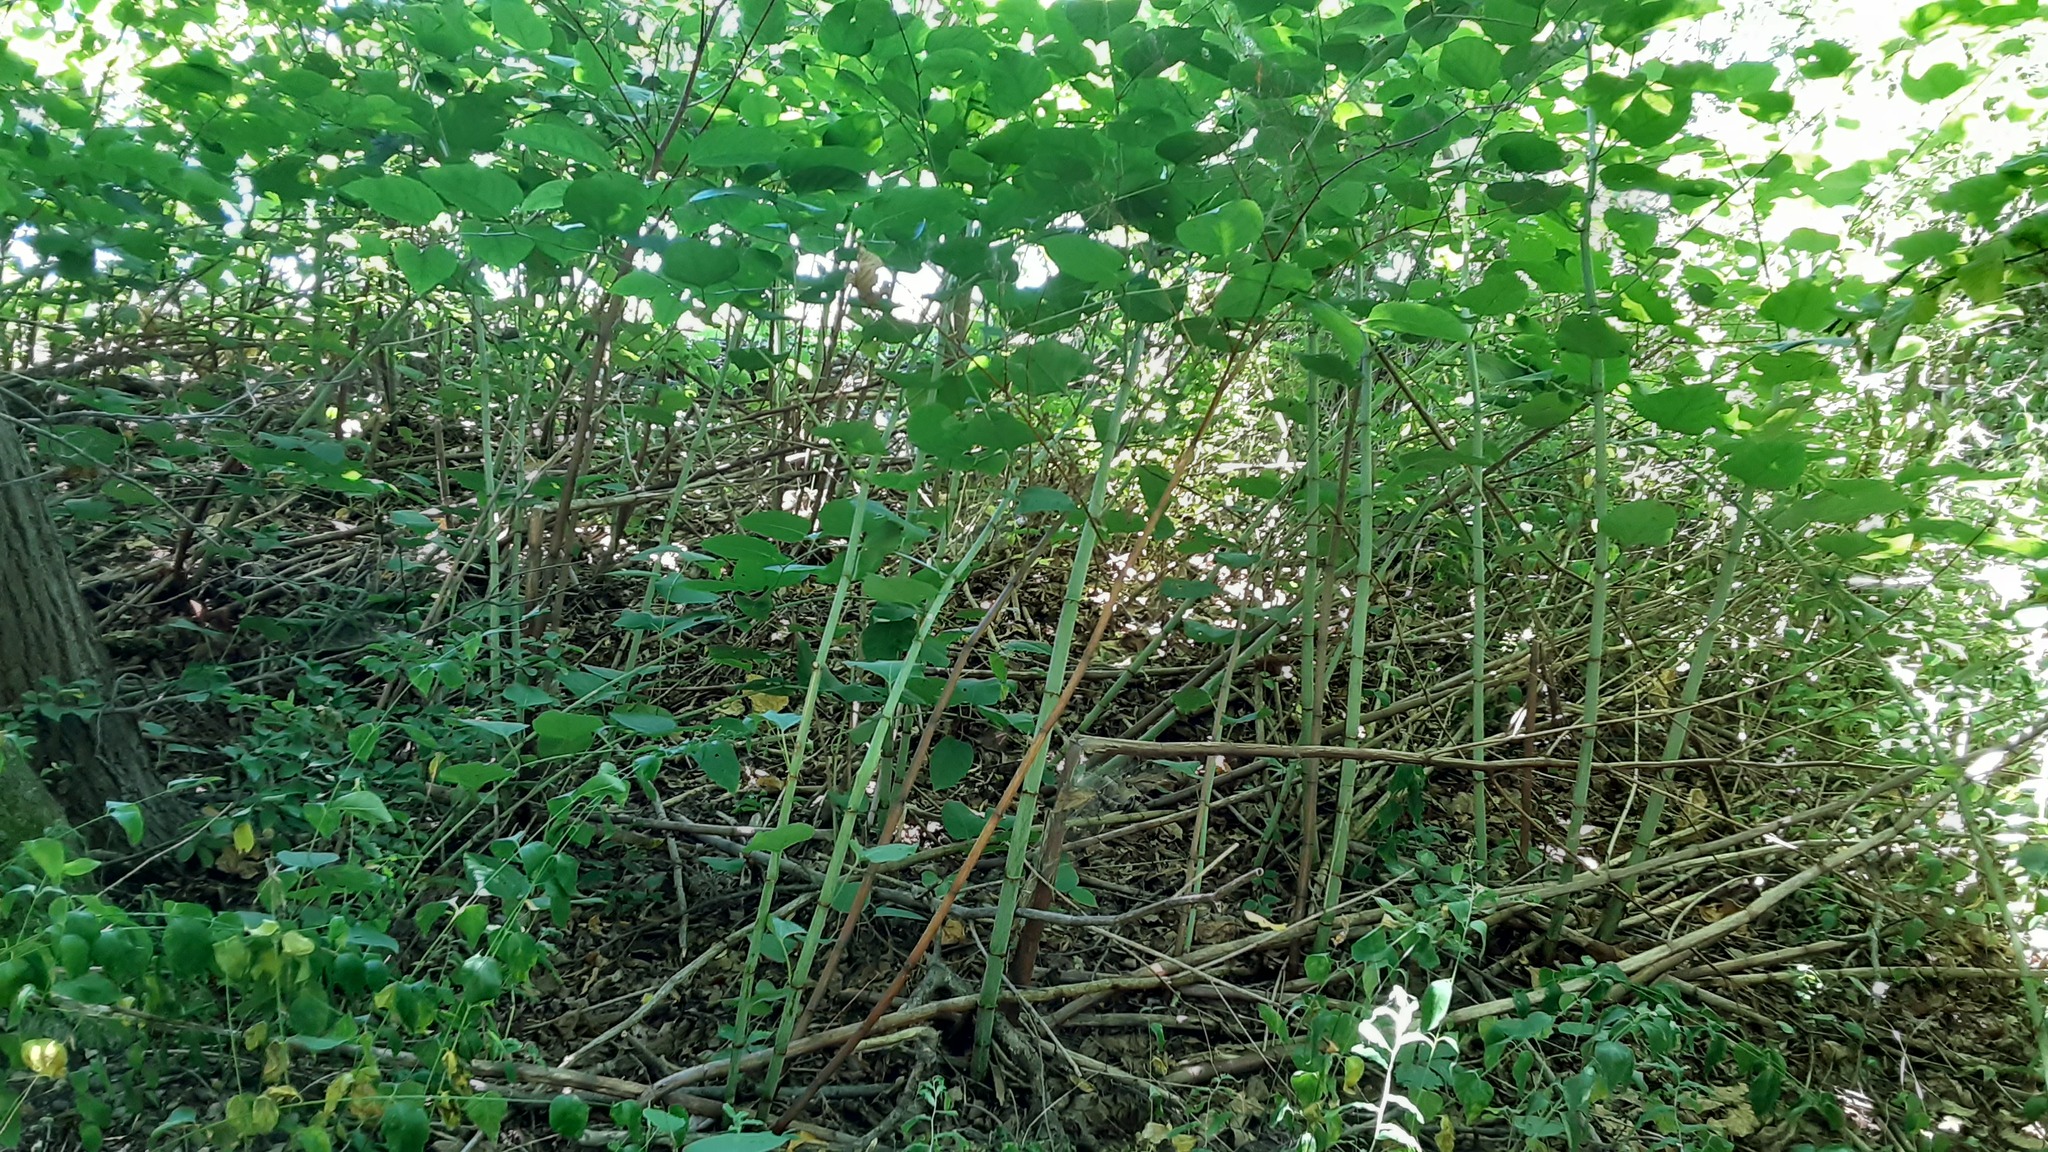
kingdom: Plantae
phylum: Tracheophyta
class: Magnoliopsida
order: Caryophyllales
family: Polygonaceae
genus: Reynoutria
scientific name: Reynoutria japonica
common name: Japanese knotweed
